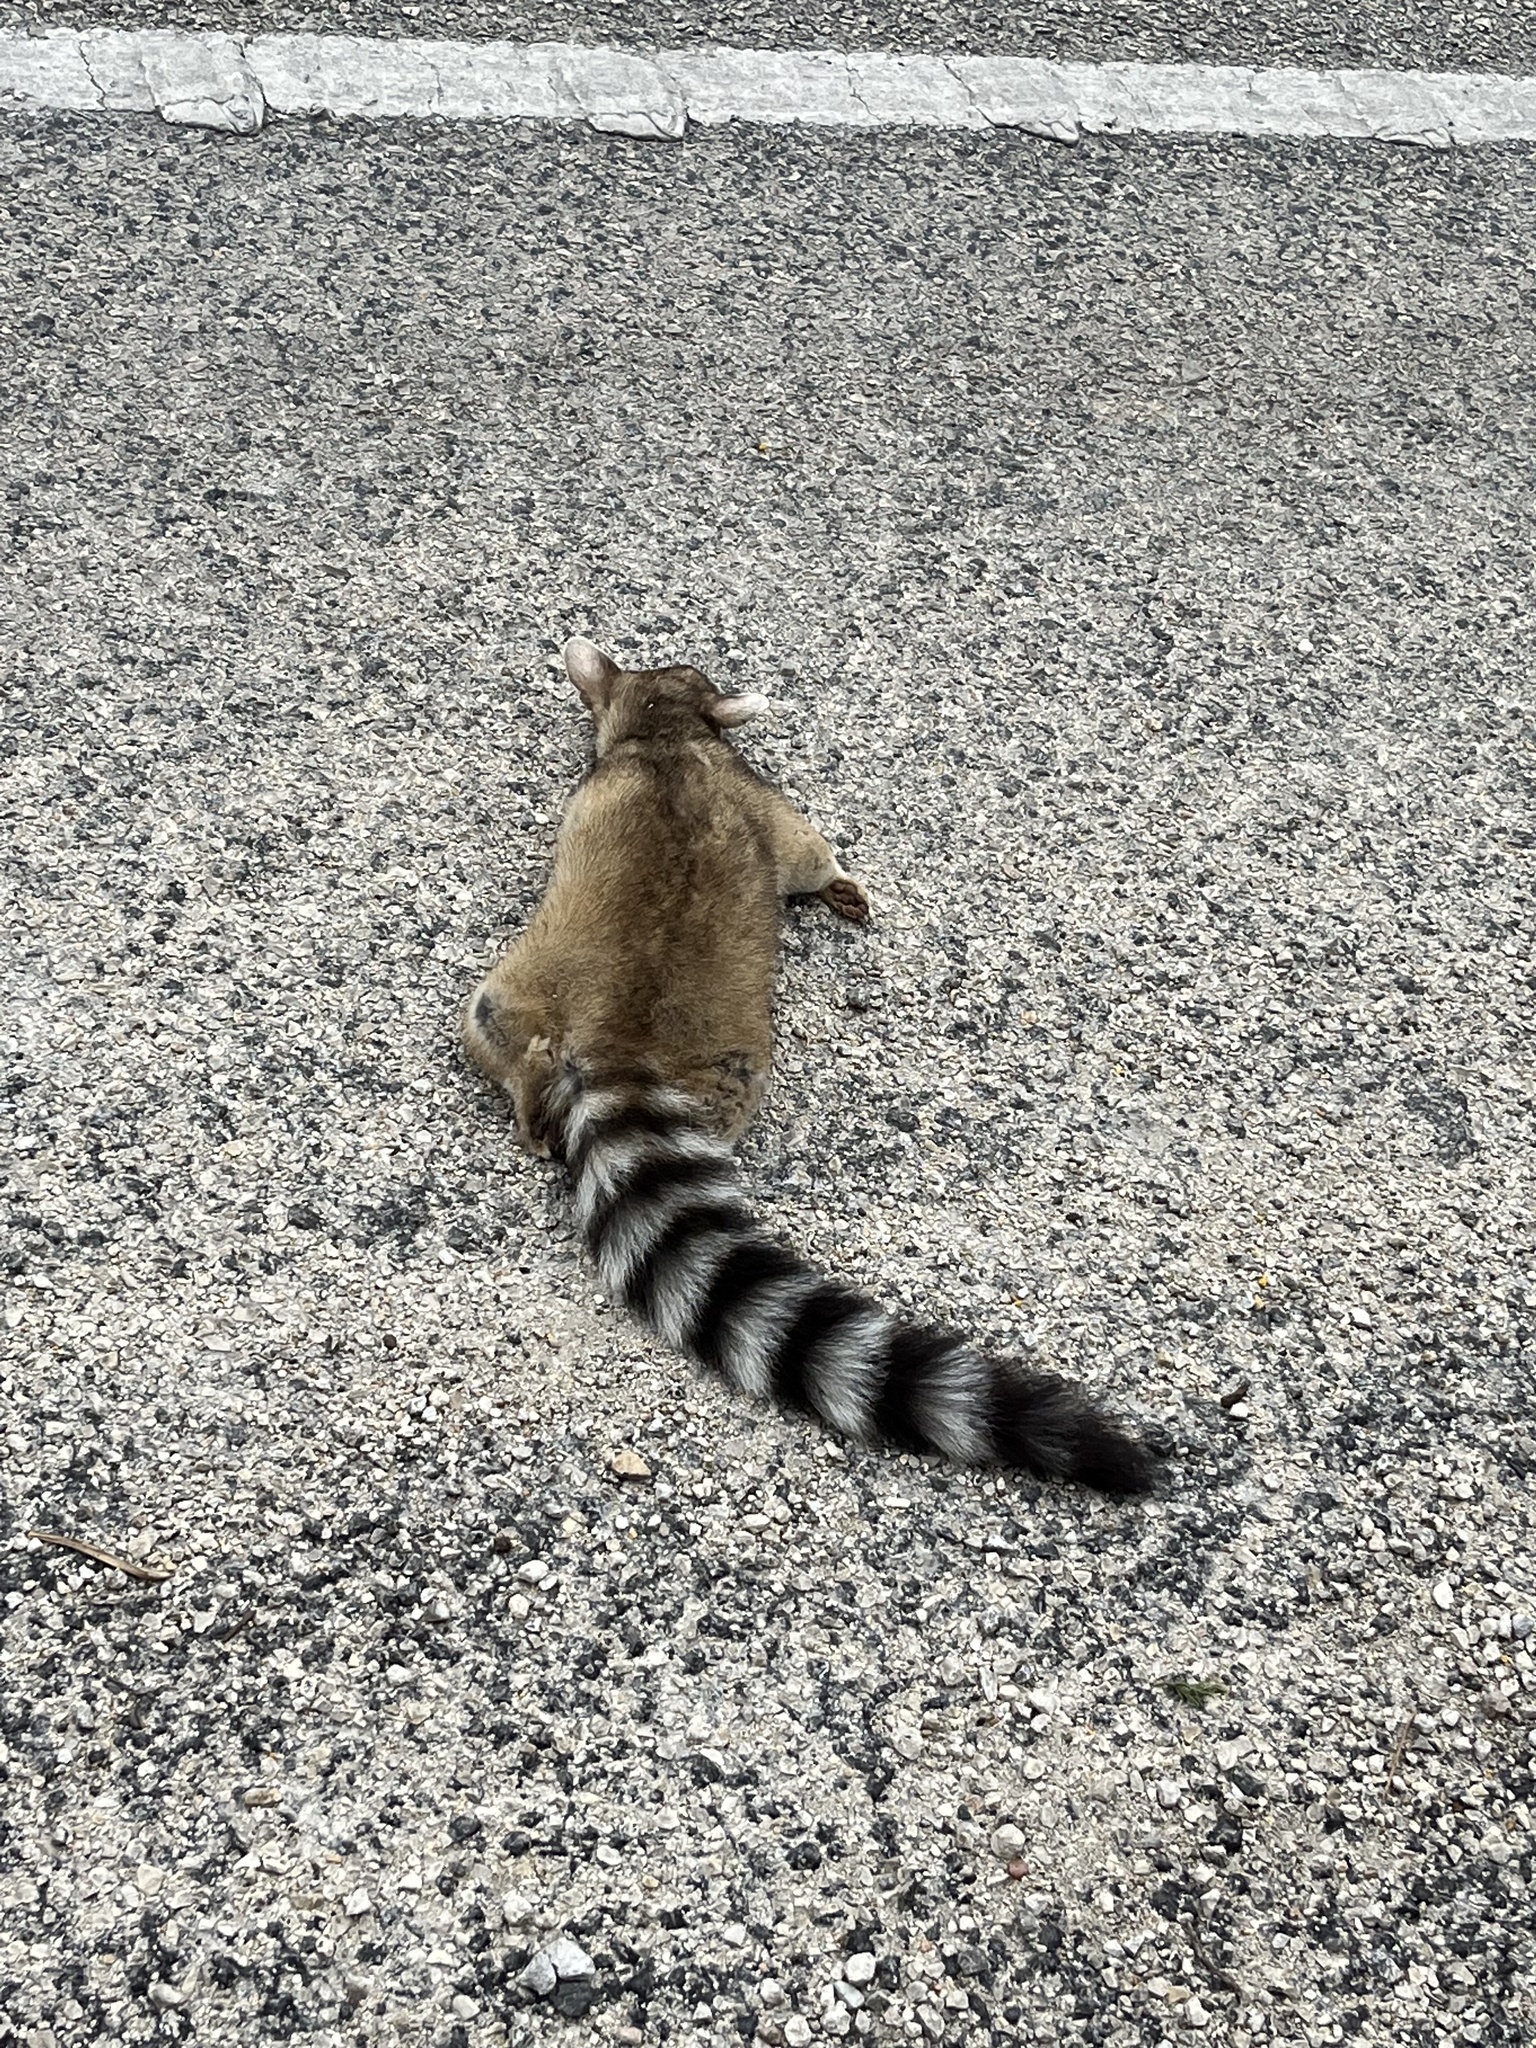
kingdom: Animalia
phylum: Chordata
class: Mammalia
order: Carnivora
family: Procyonidae
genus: Bassariscus
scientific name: Bassariscus astutus
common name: Ringtail
